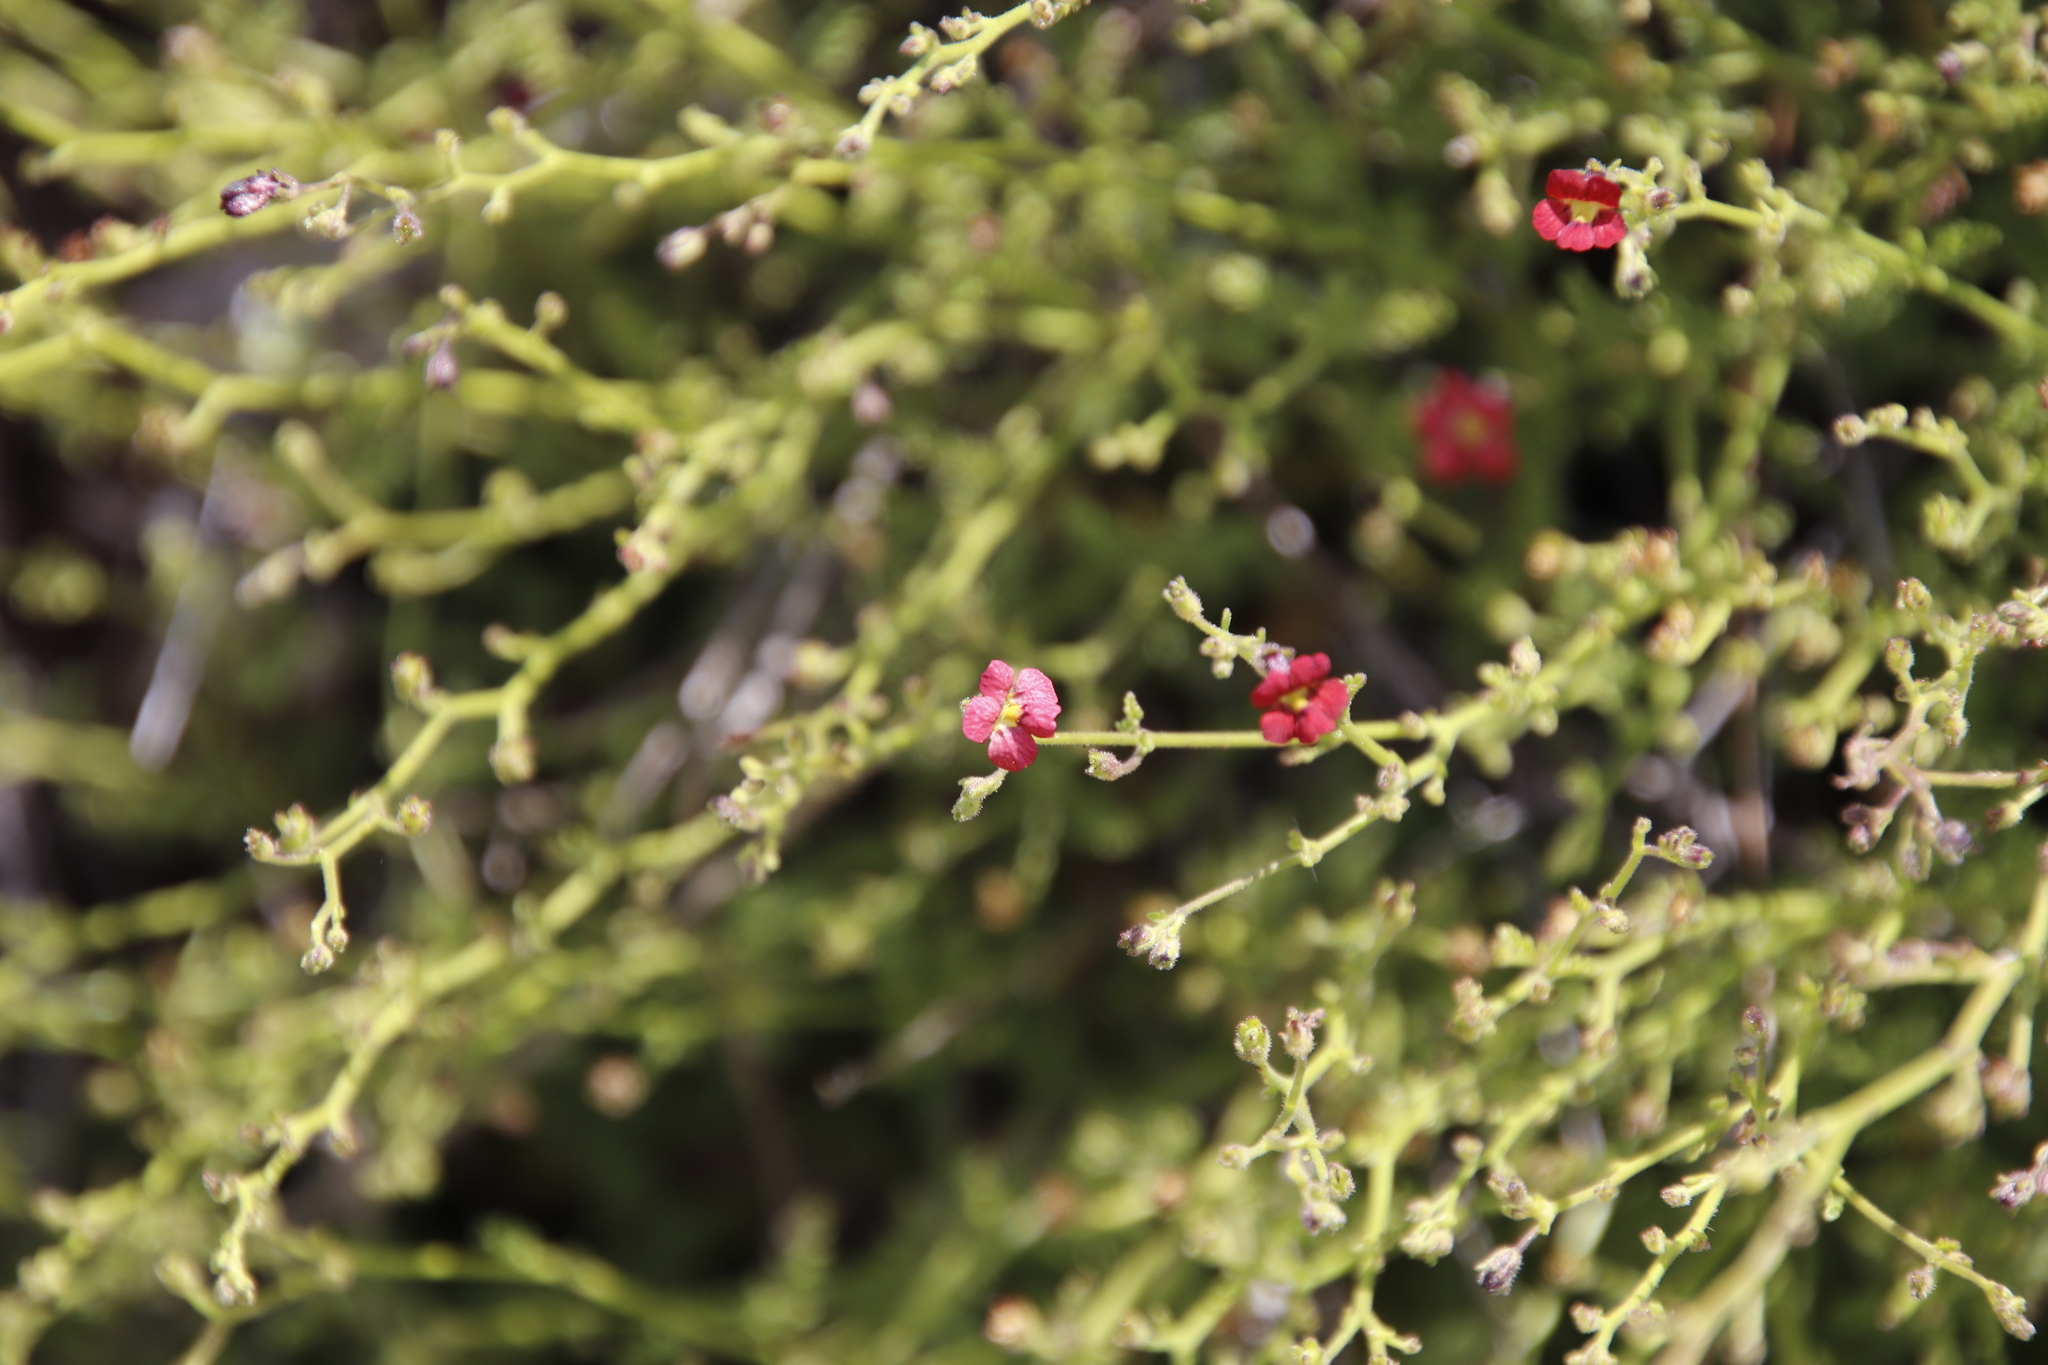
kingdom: Plantae
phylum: Tracheophyta
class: Magnoliopsida
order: Lamiales
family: Scrophulariaceae
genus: Jamesbrittenia
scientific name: Jamesbrittenia breviflora
